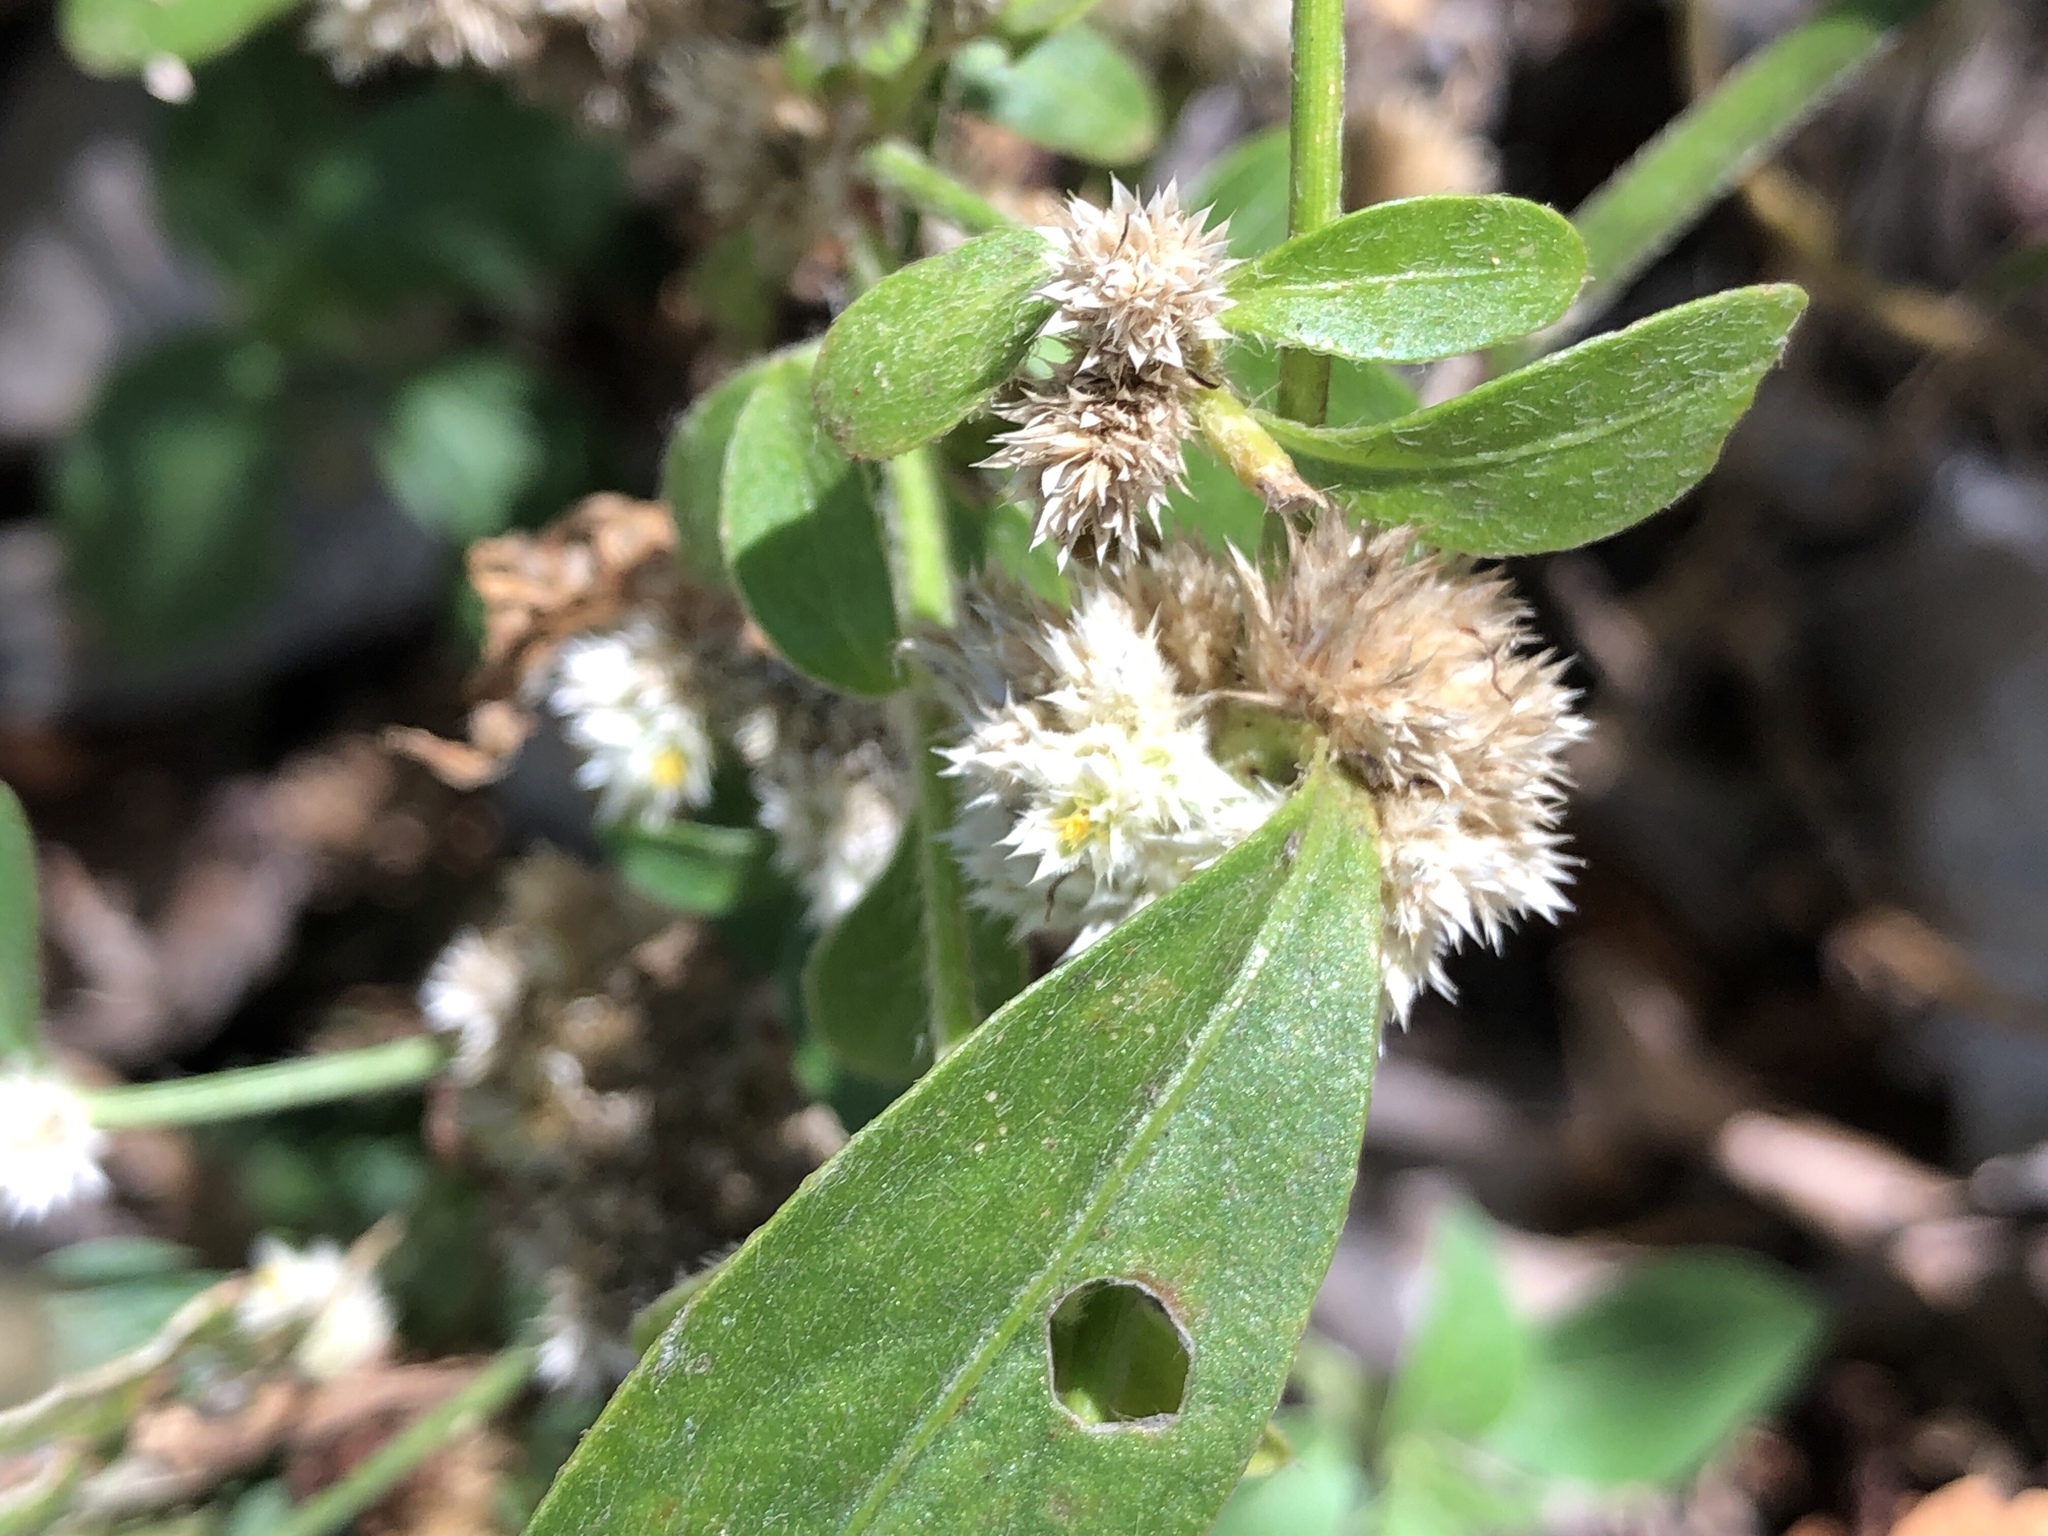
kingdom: Plantae
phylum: Tracheophyta
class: Magnoliopsida
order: Caryophyllales
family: Amaranthaceae
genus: Alternanthera
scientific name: Alternanthera ficoidea
